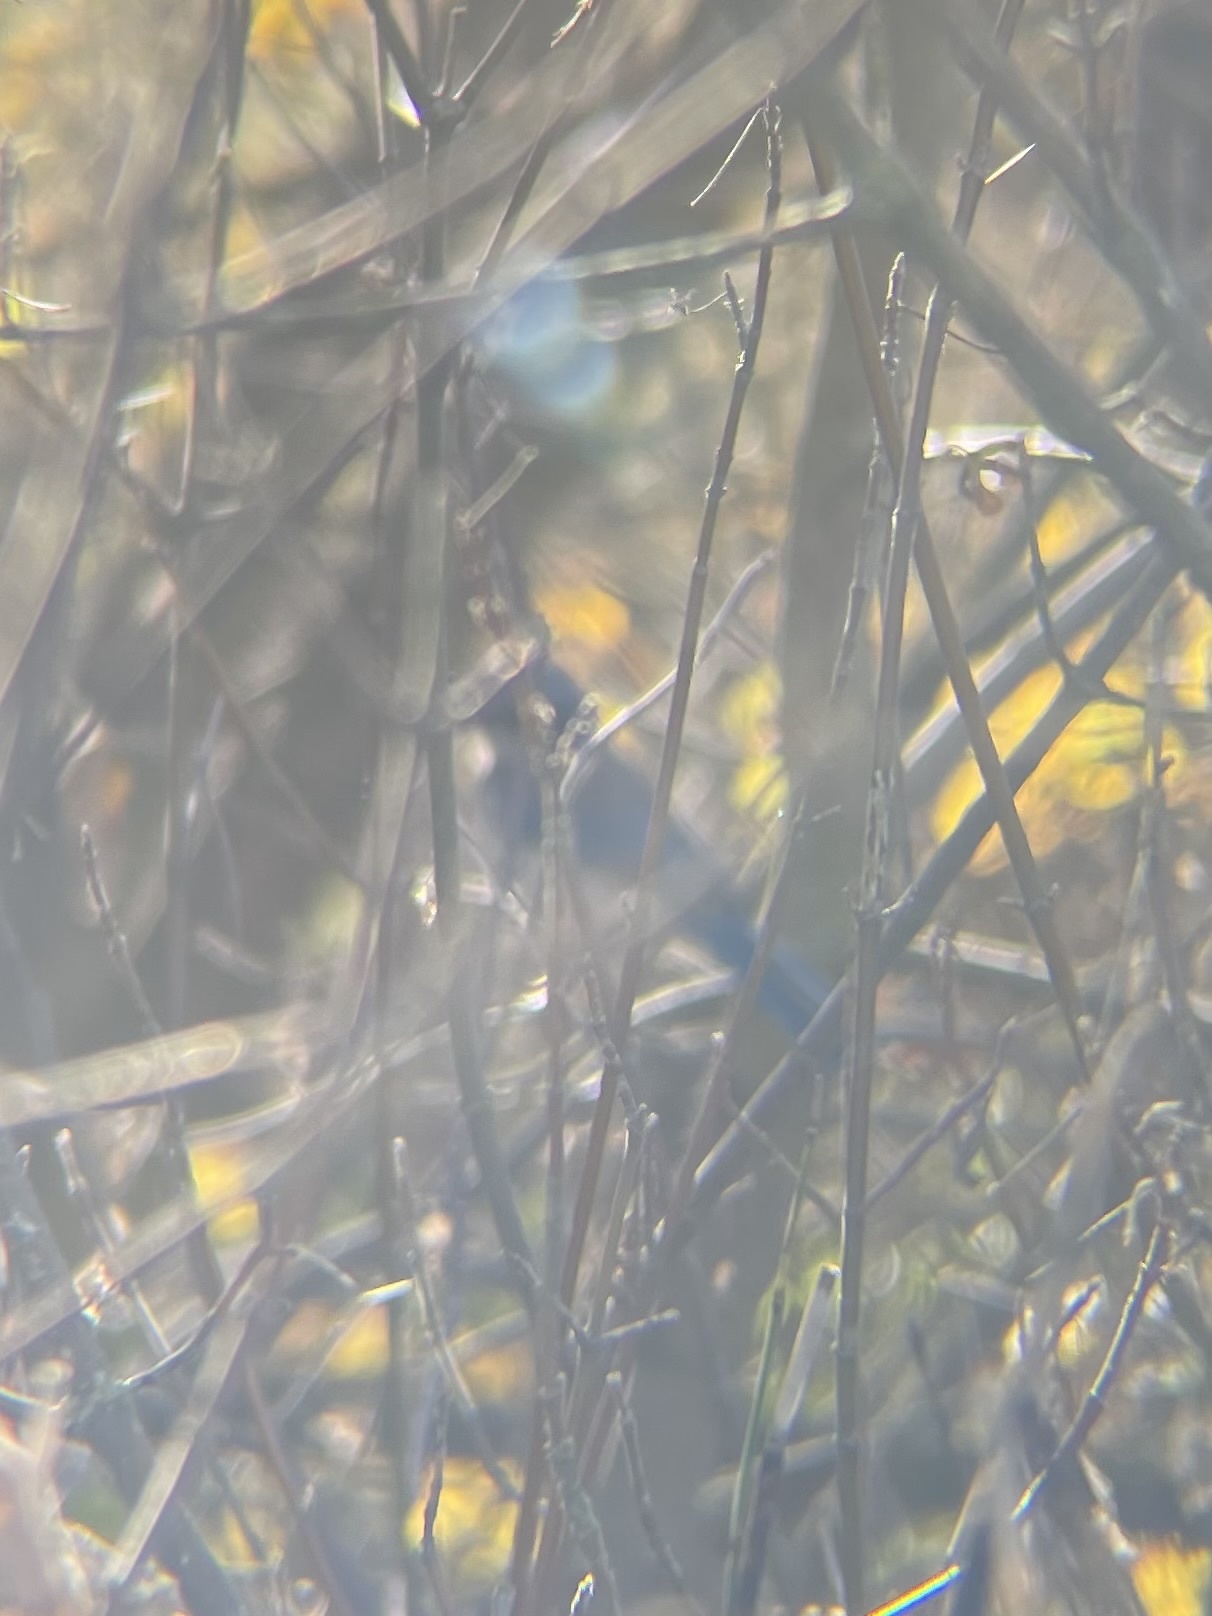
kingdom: Animalia
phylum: Chordata
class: Aves
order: Passeriformes
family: Corvidae
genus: Aphelocoma
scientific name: Aphelocoma californica
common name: California scrub-jay
